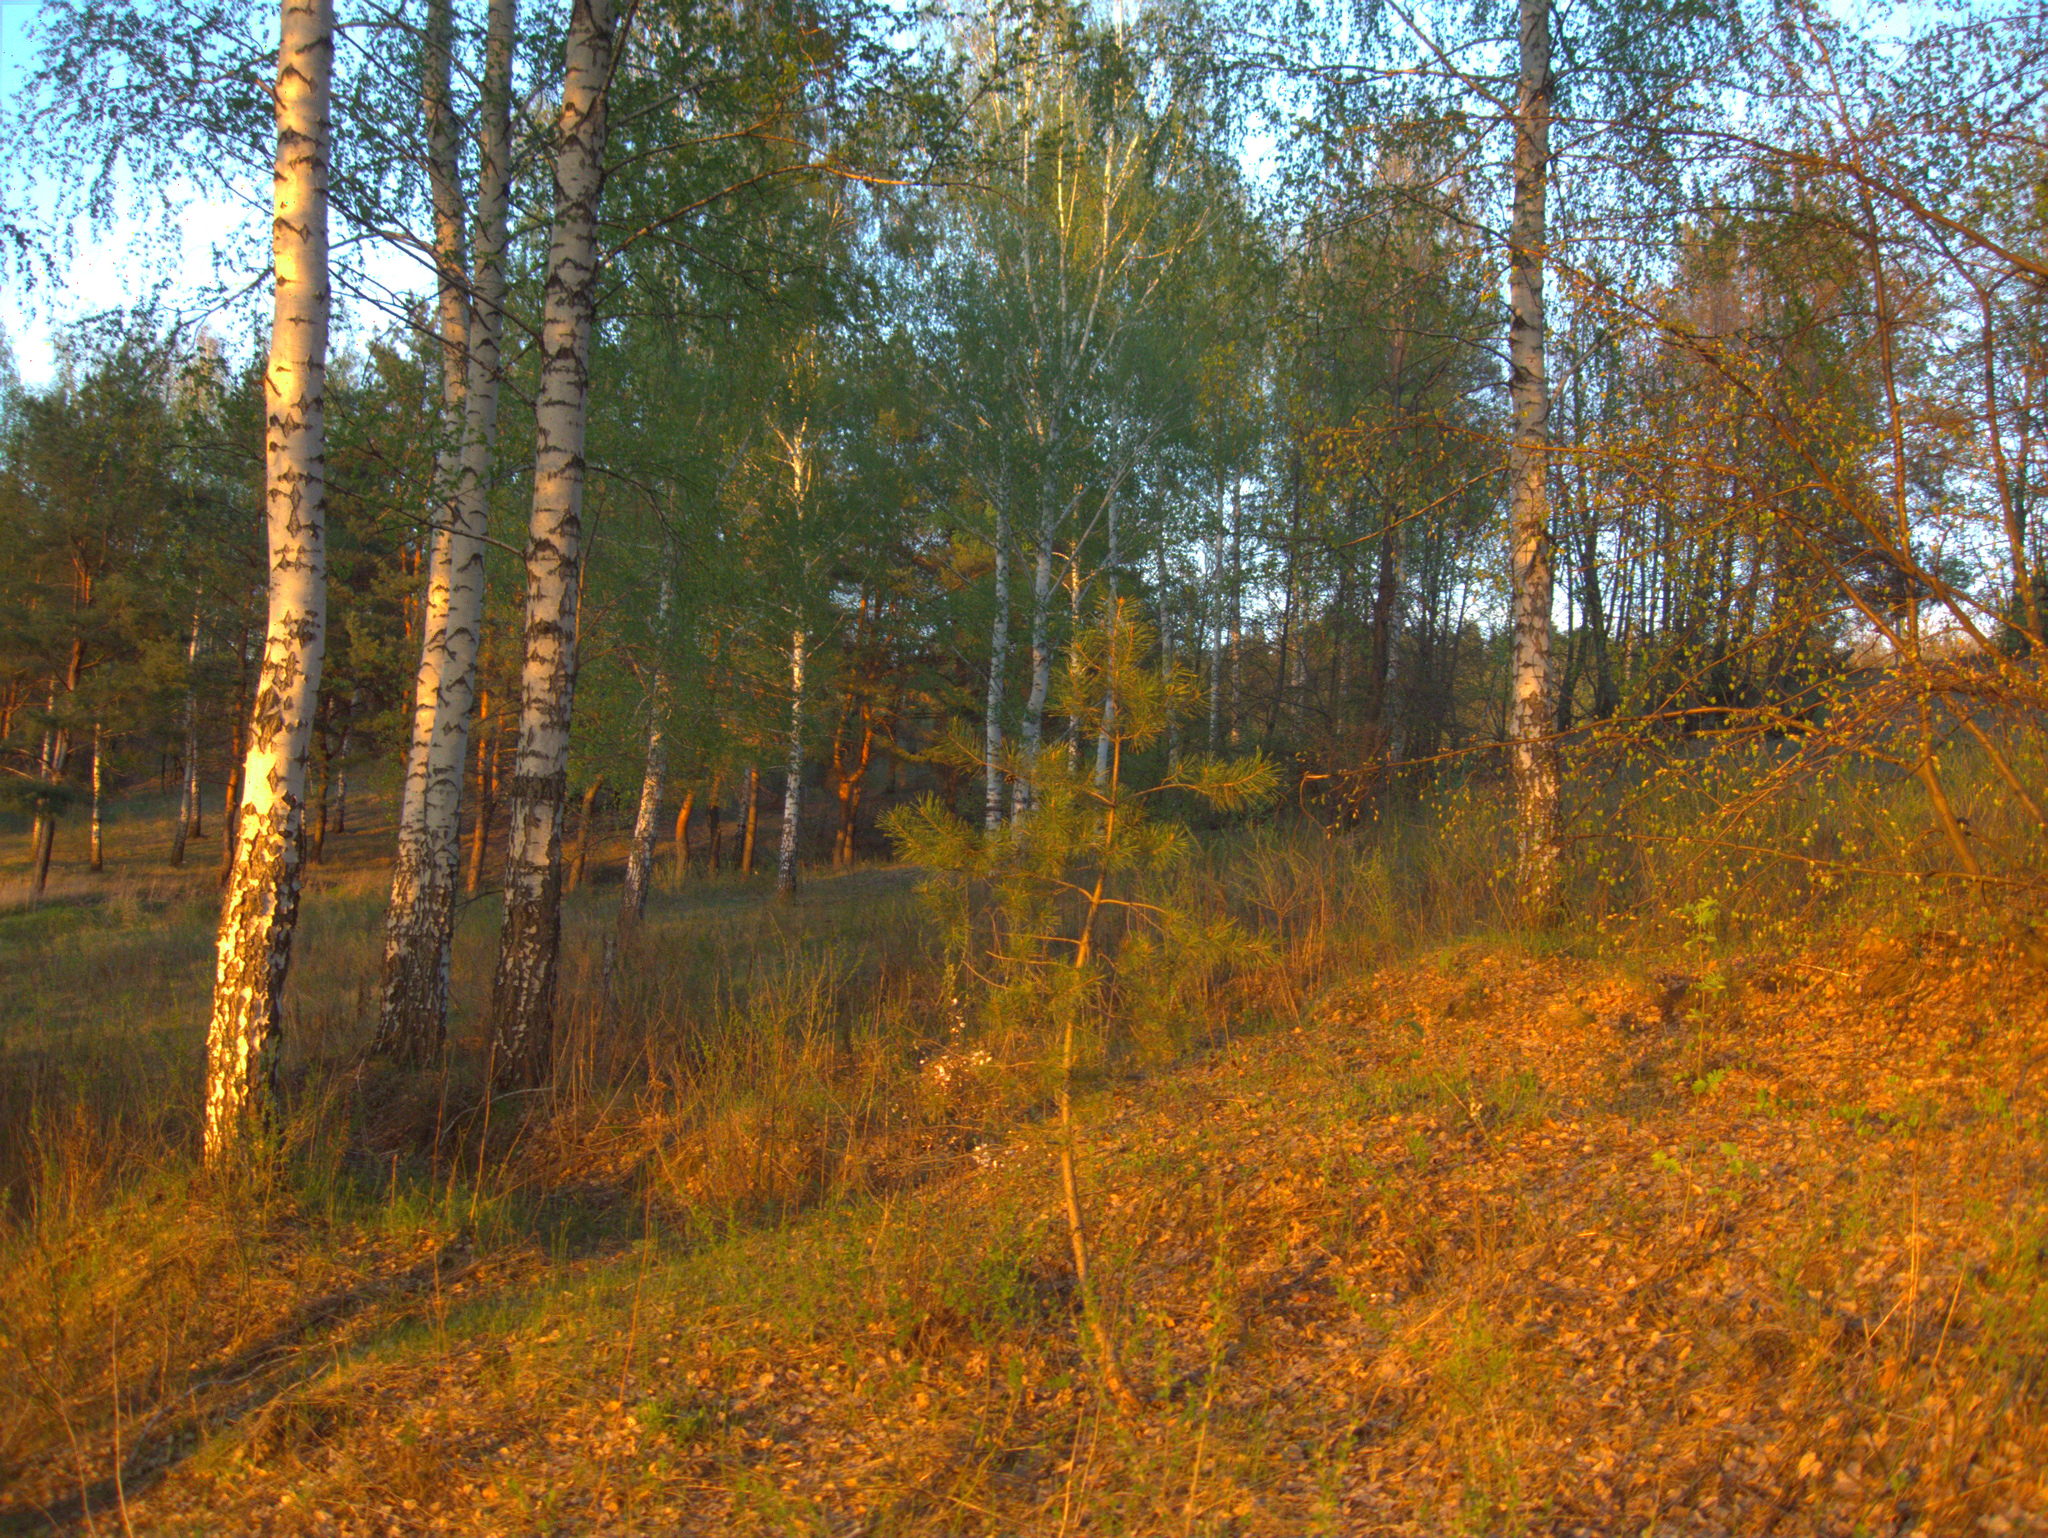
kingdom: Plantae
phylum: Tracheophyta
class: Pinopsida
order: Pinales
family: Pinaceae
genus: Pinus
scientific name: Pinus sylvestris
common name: Scots pine
